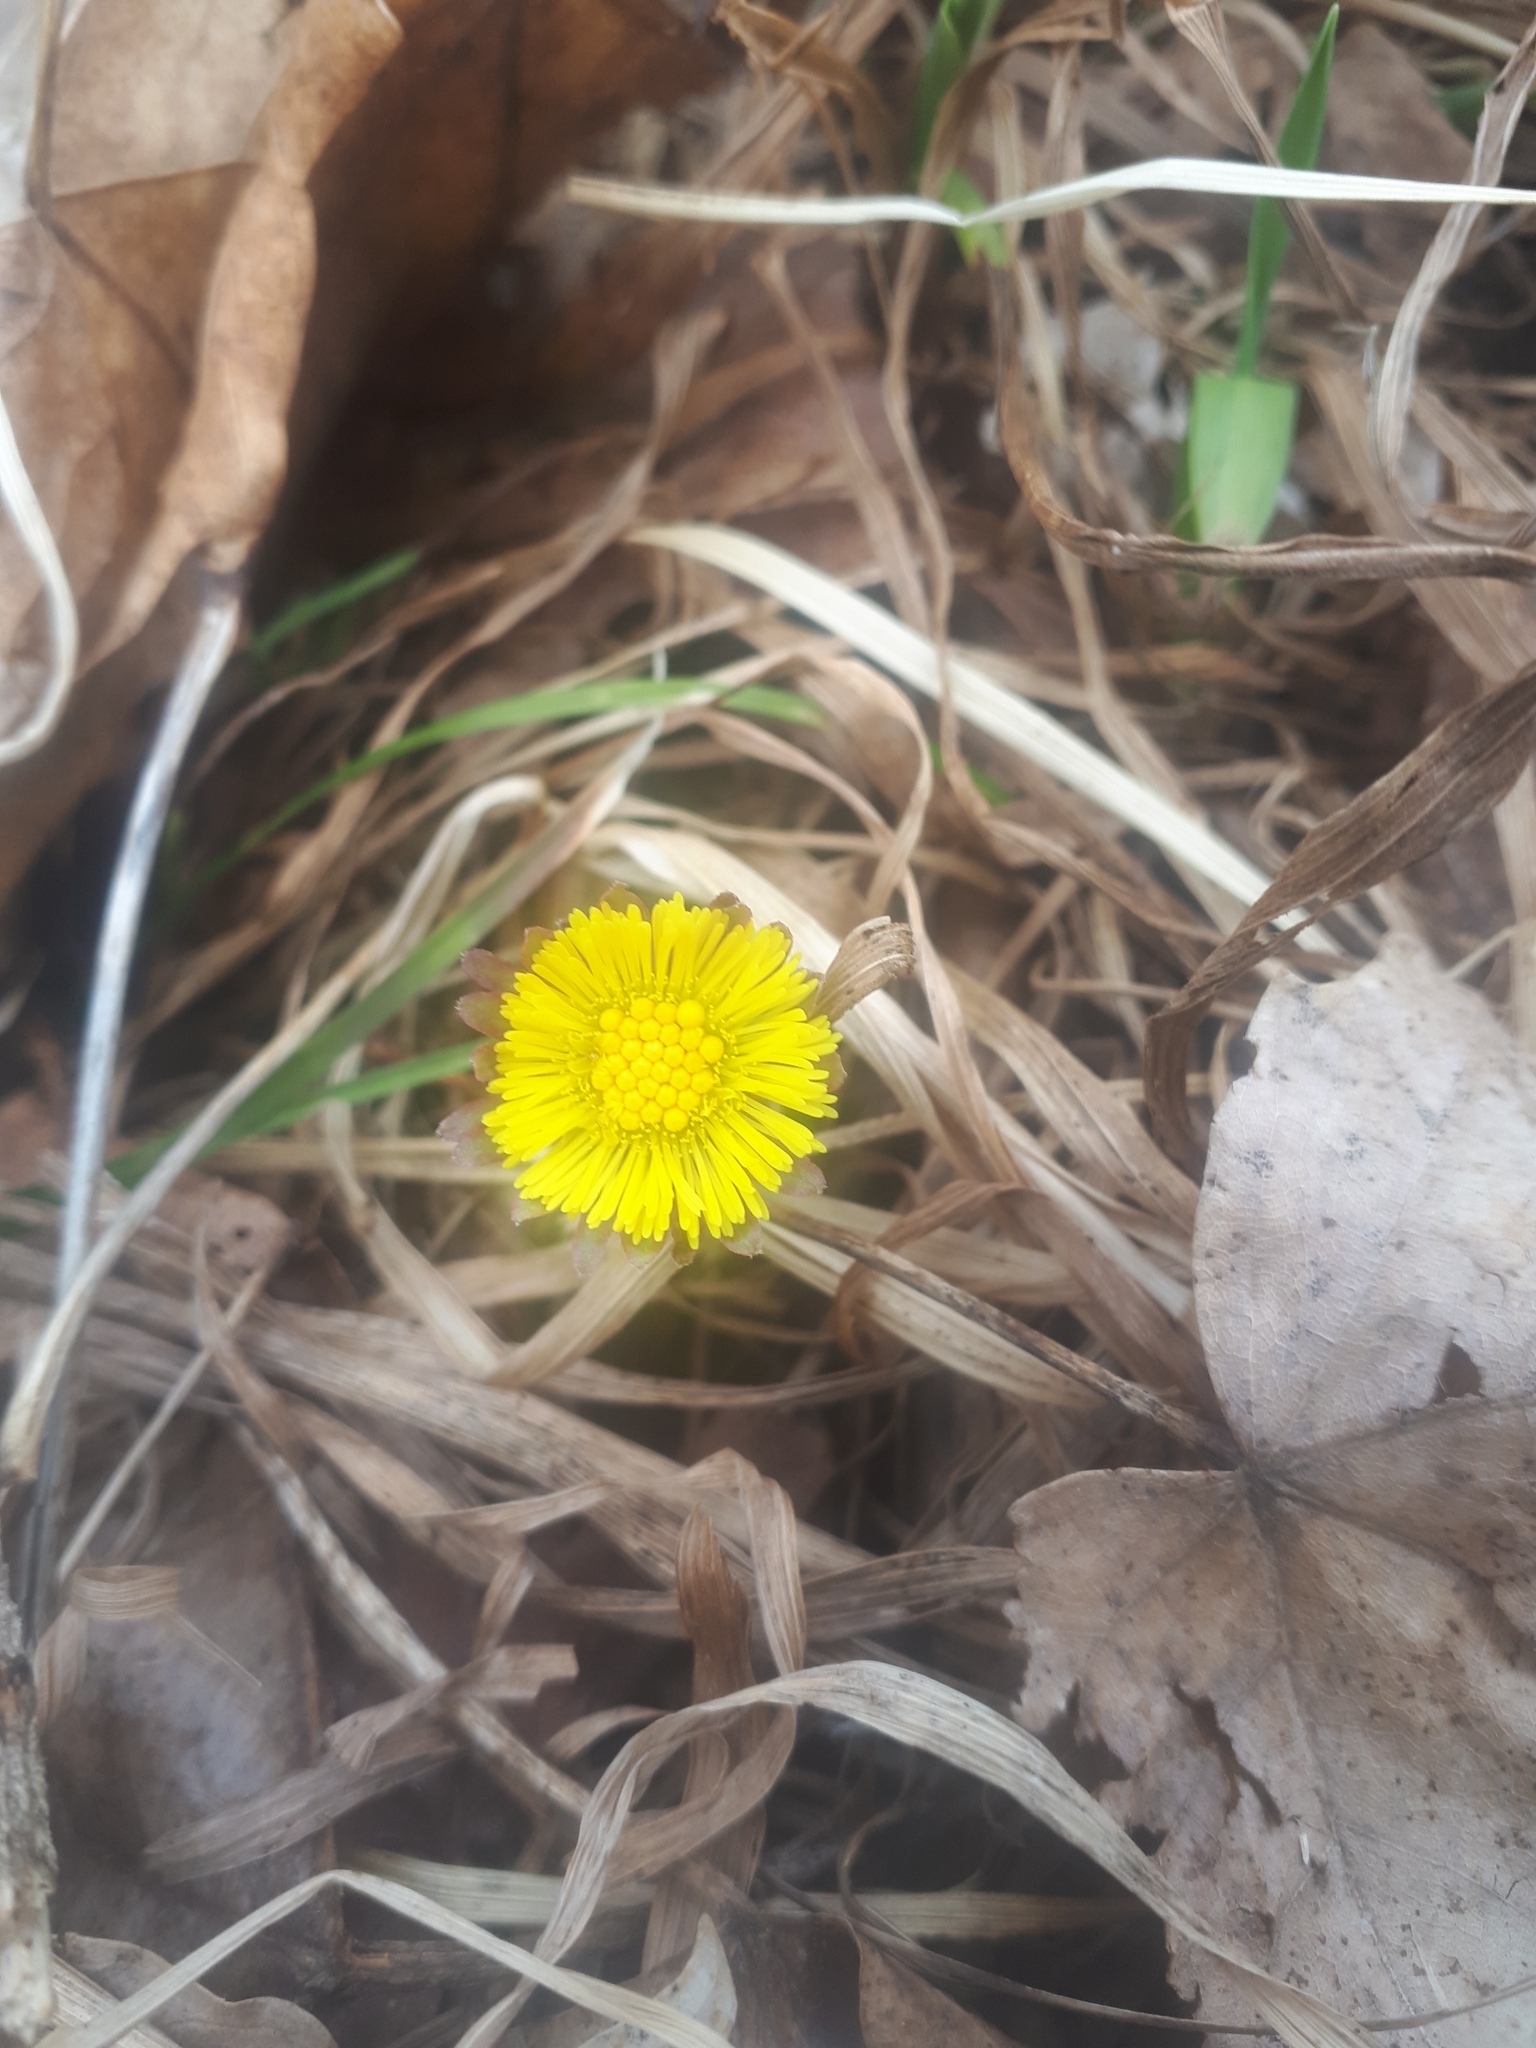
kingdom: Plantae
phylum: Tracheophyta
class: Magnoliopsida
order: Asterales
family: Asteraceae
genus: Tussilago
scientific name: Tussilago farfara
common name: Coltsfoot
